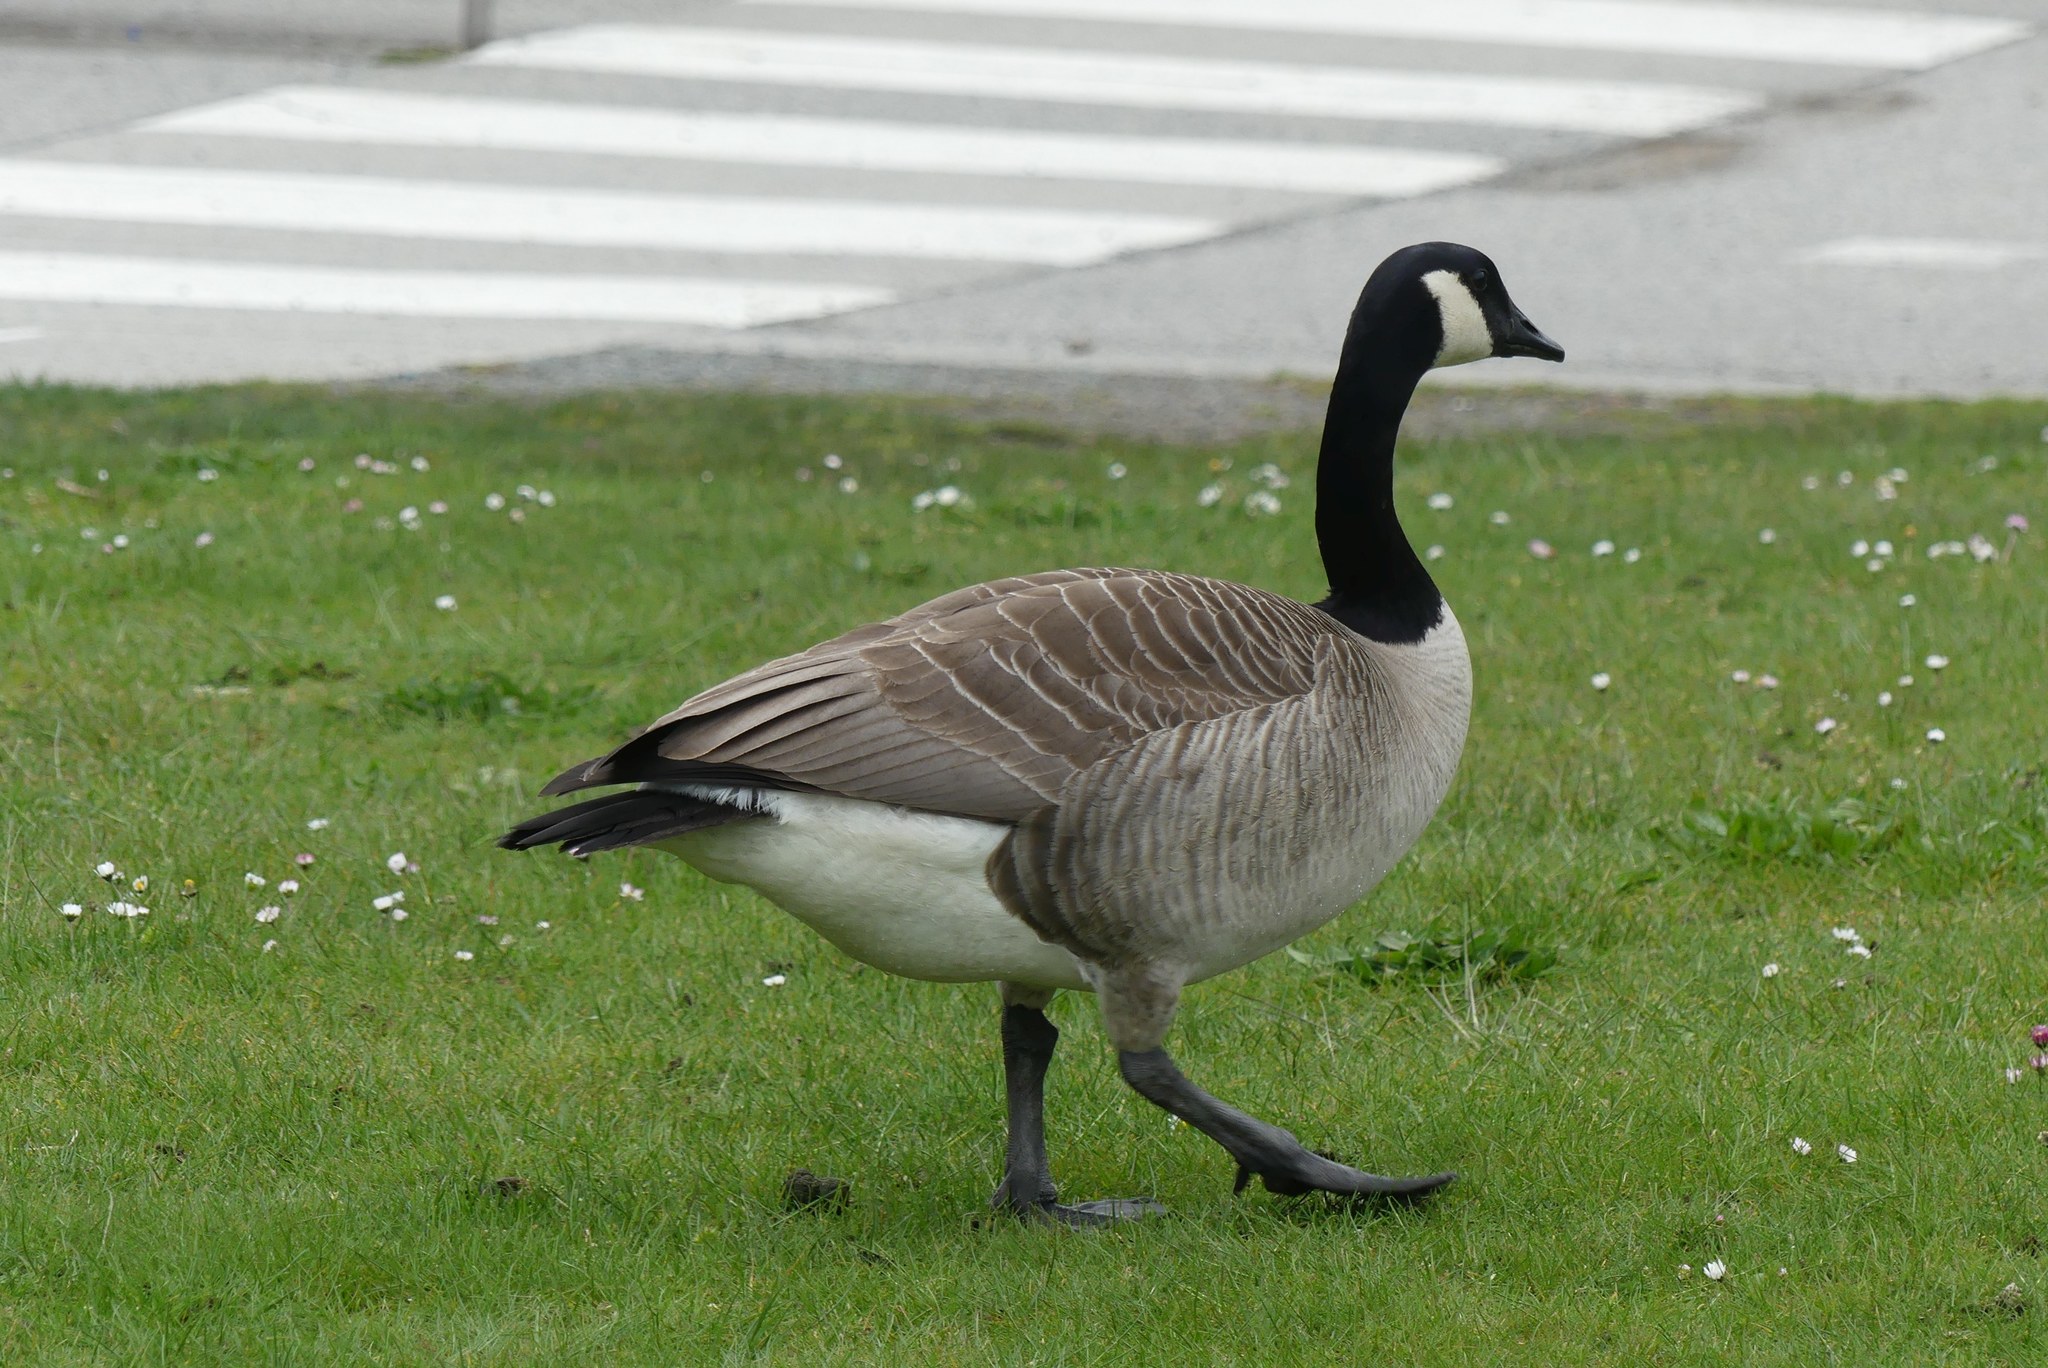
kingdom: Animalia
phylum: Chordata
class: Aves
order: Anseriformes
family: Anatidae
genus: Branta
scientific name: Branta canadensis
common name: Canada goose
